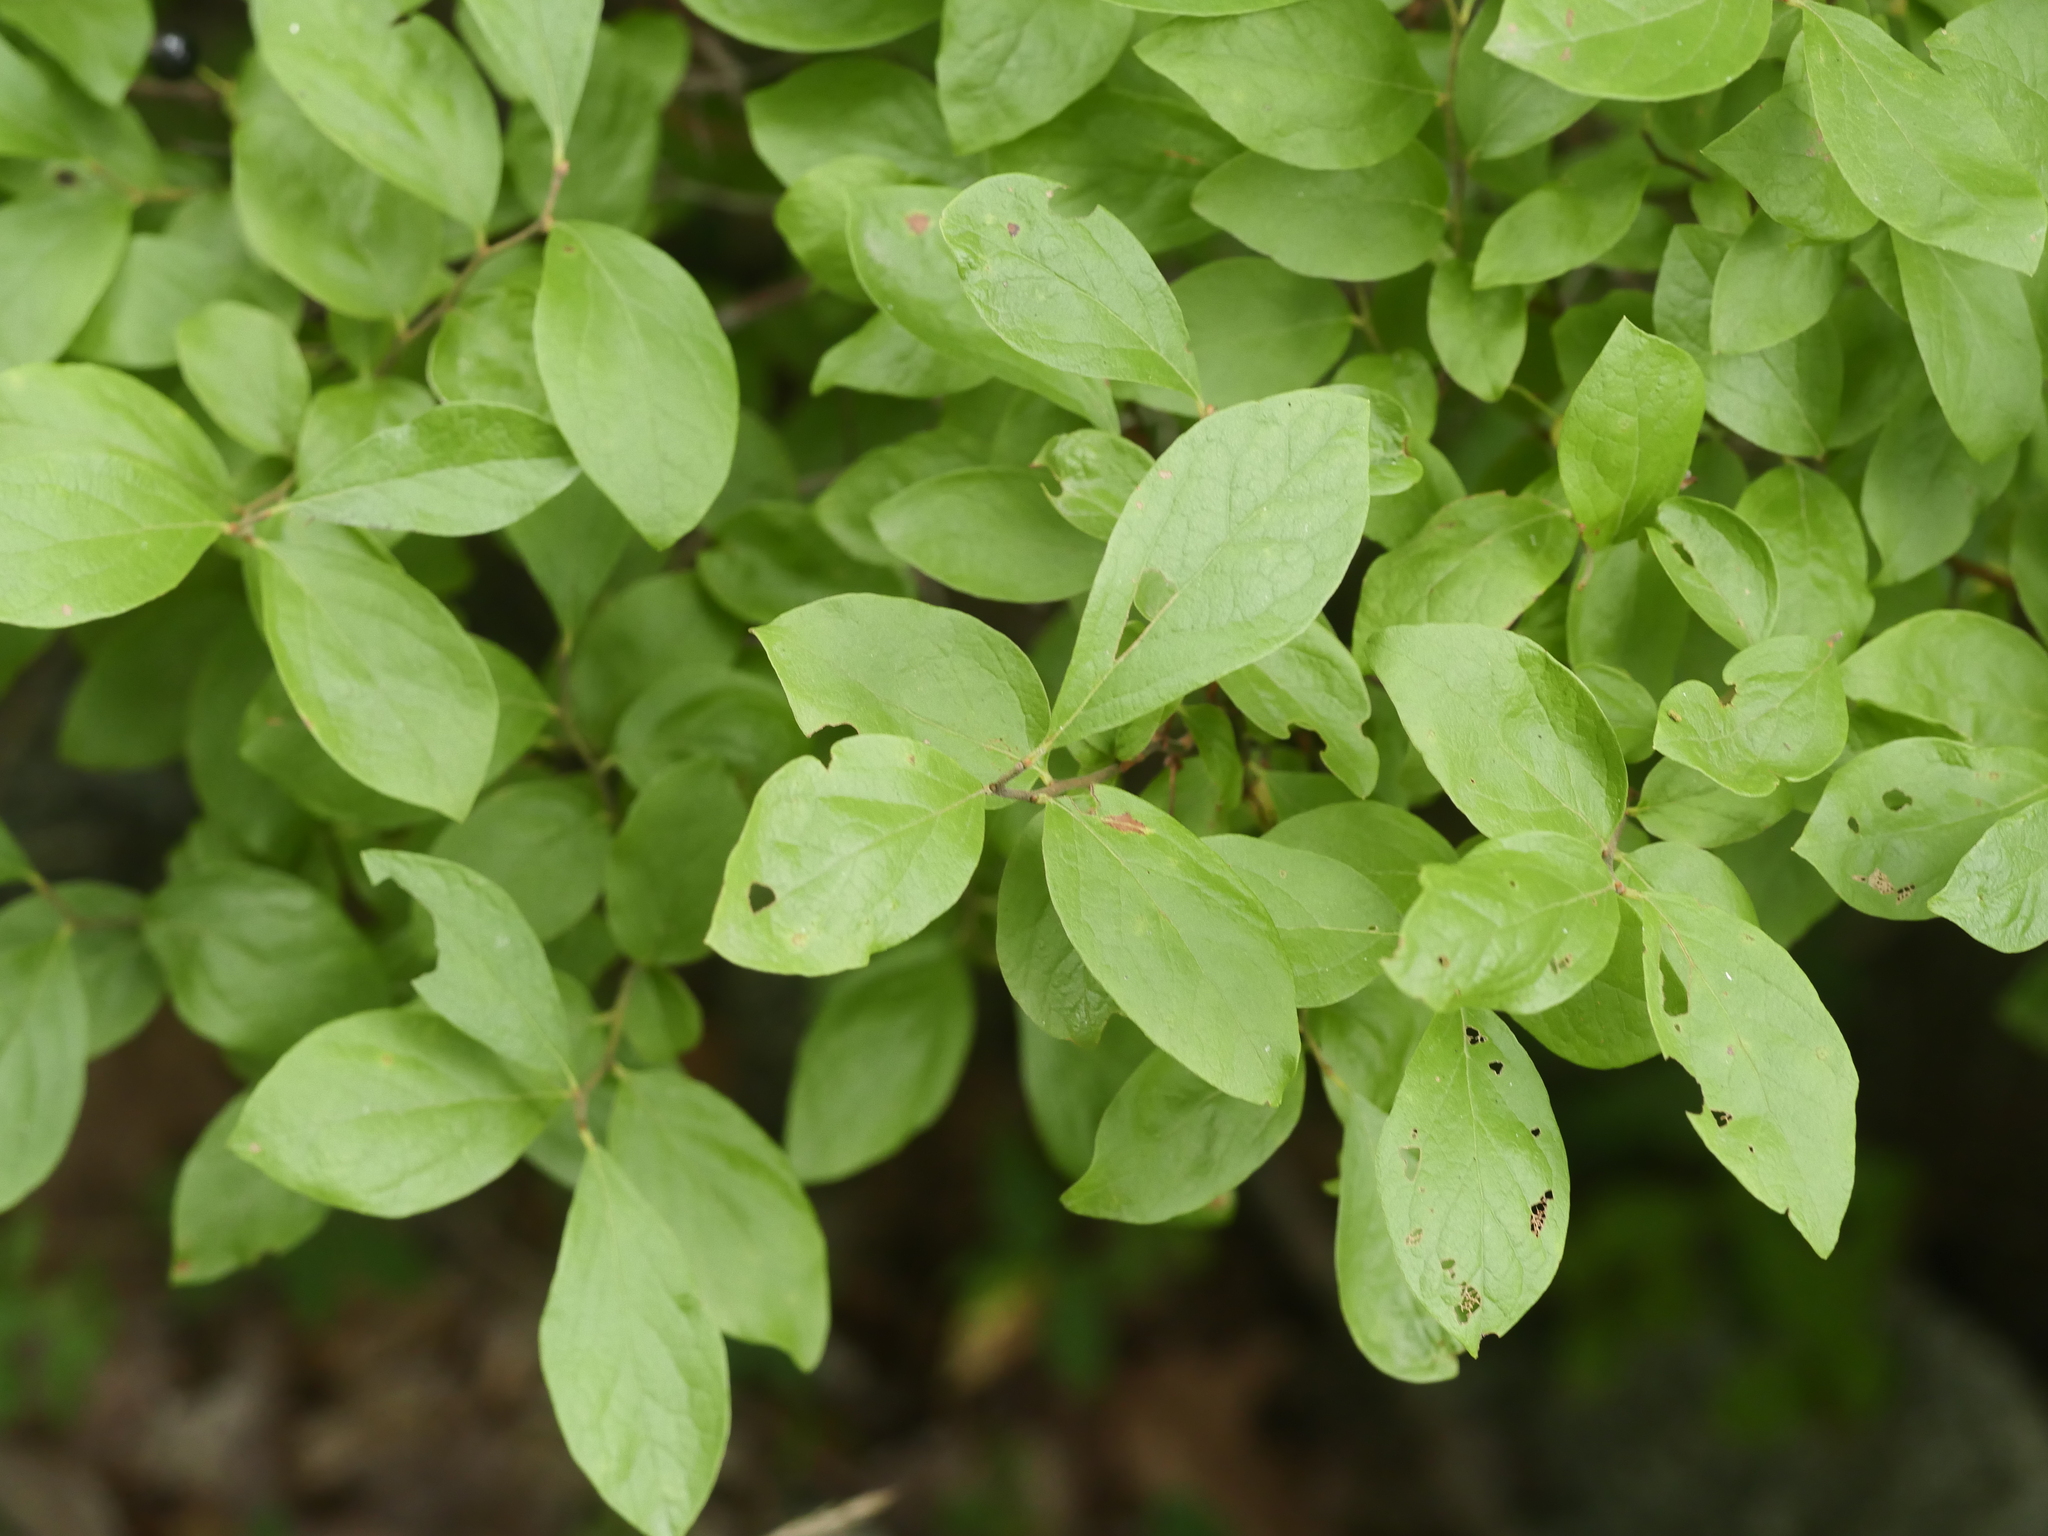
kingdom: Plantae
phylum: Tracheophyta
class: Magnoliopsida
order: Ericales
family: Ericaceae
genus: Gaylussacia
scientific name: Gaylussacia baccata
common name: Black huckleberry
